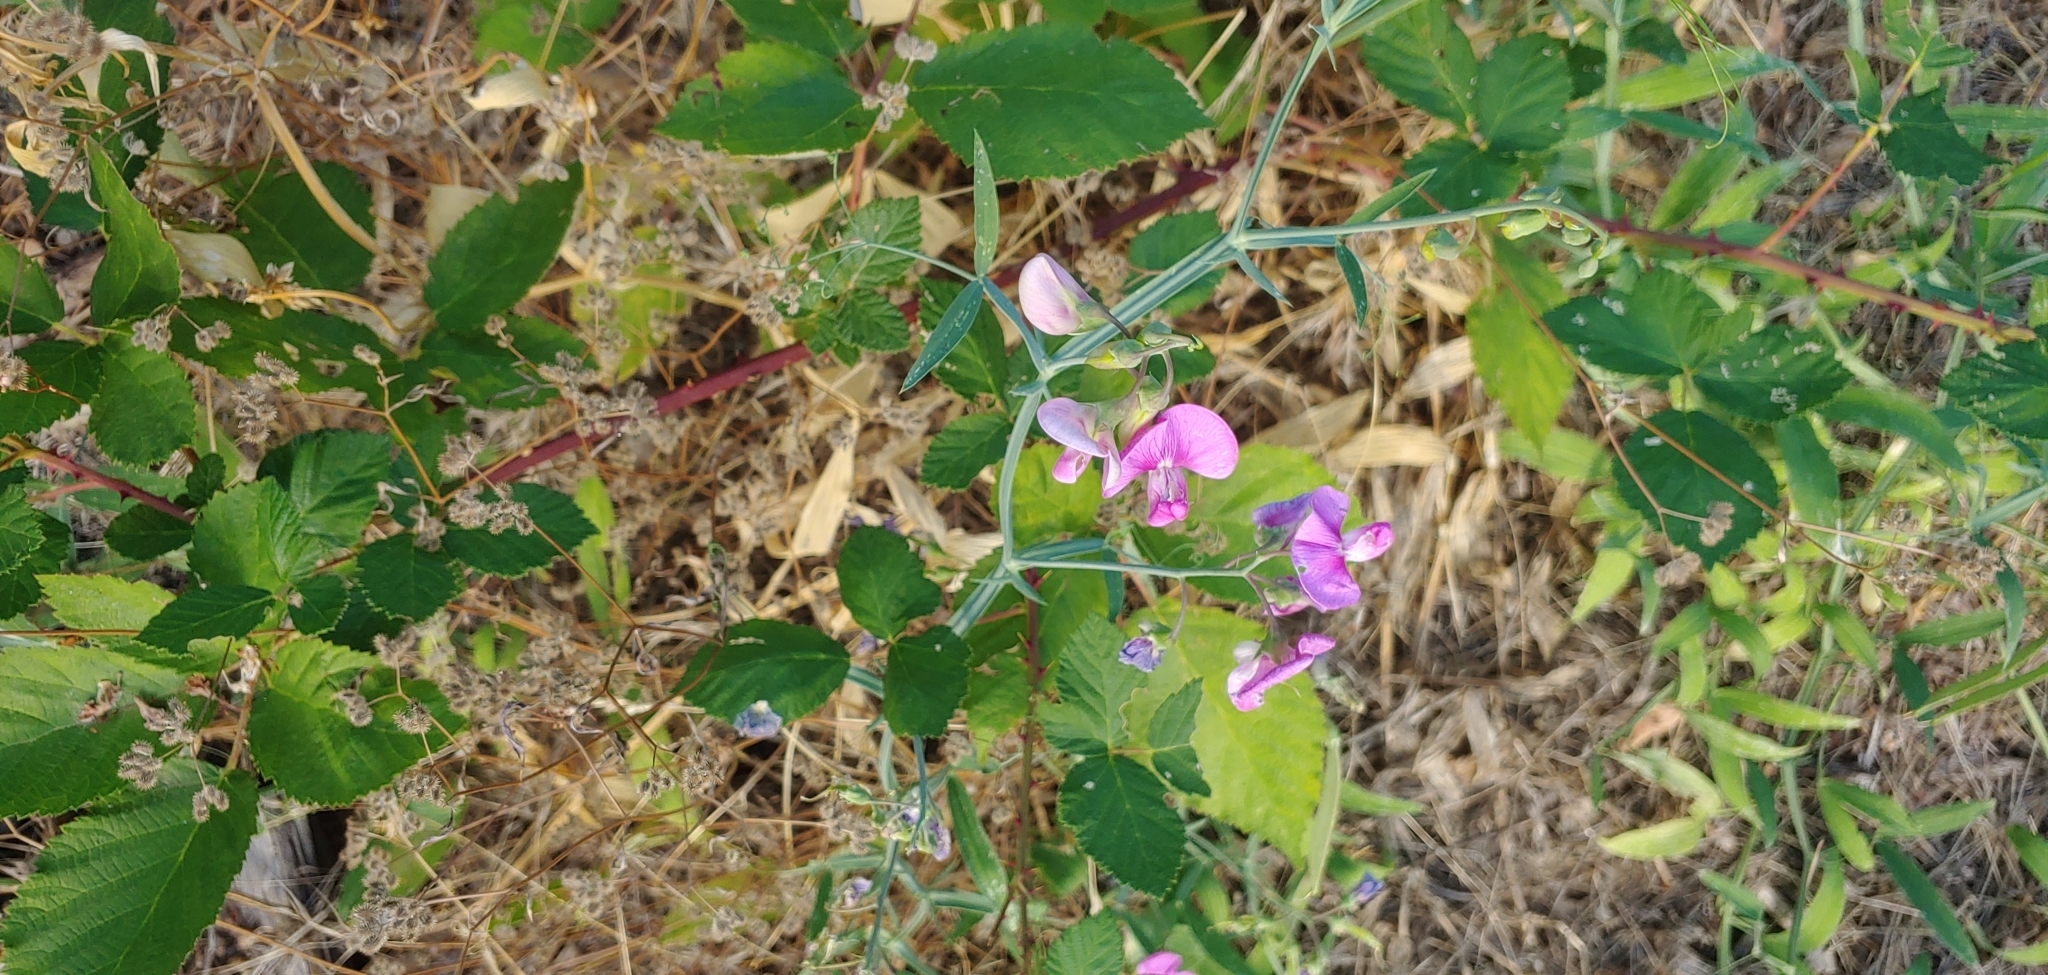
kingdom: Plantae
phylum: Tracheophyta
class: Magnoliopsida
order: Fabales
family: Fabaceae
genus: Lathyrus
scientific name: Lathyrus latifolius
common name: Perennial pea
